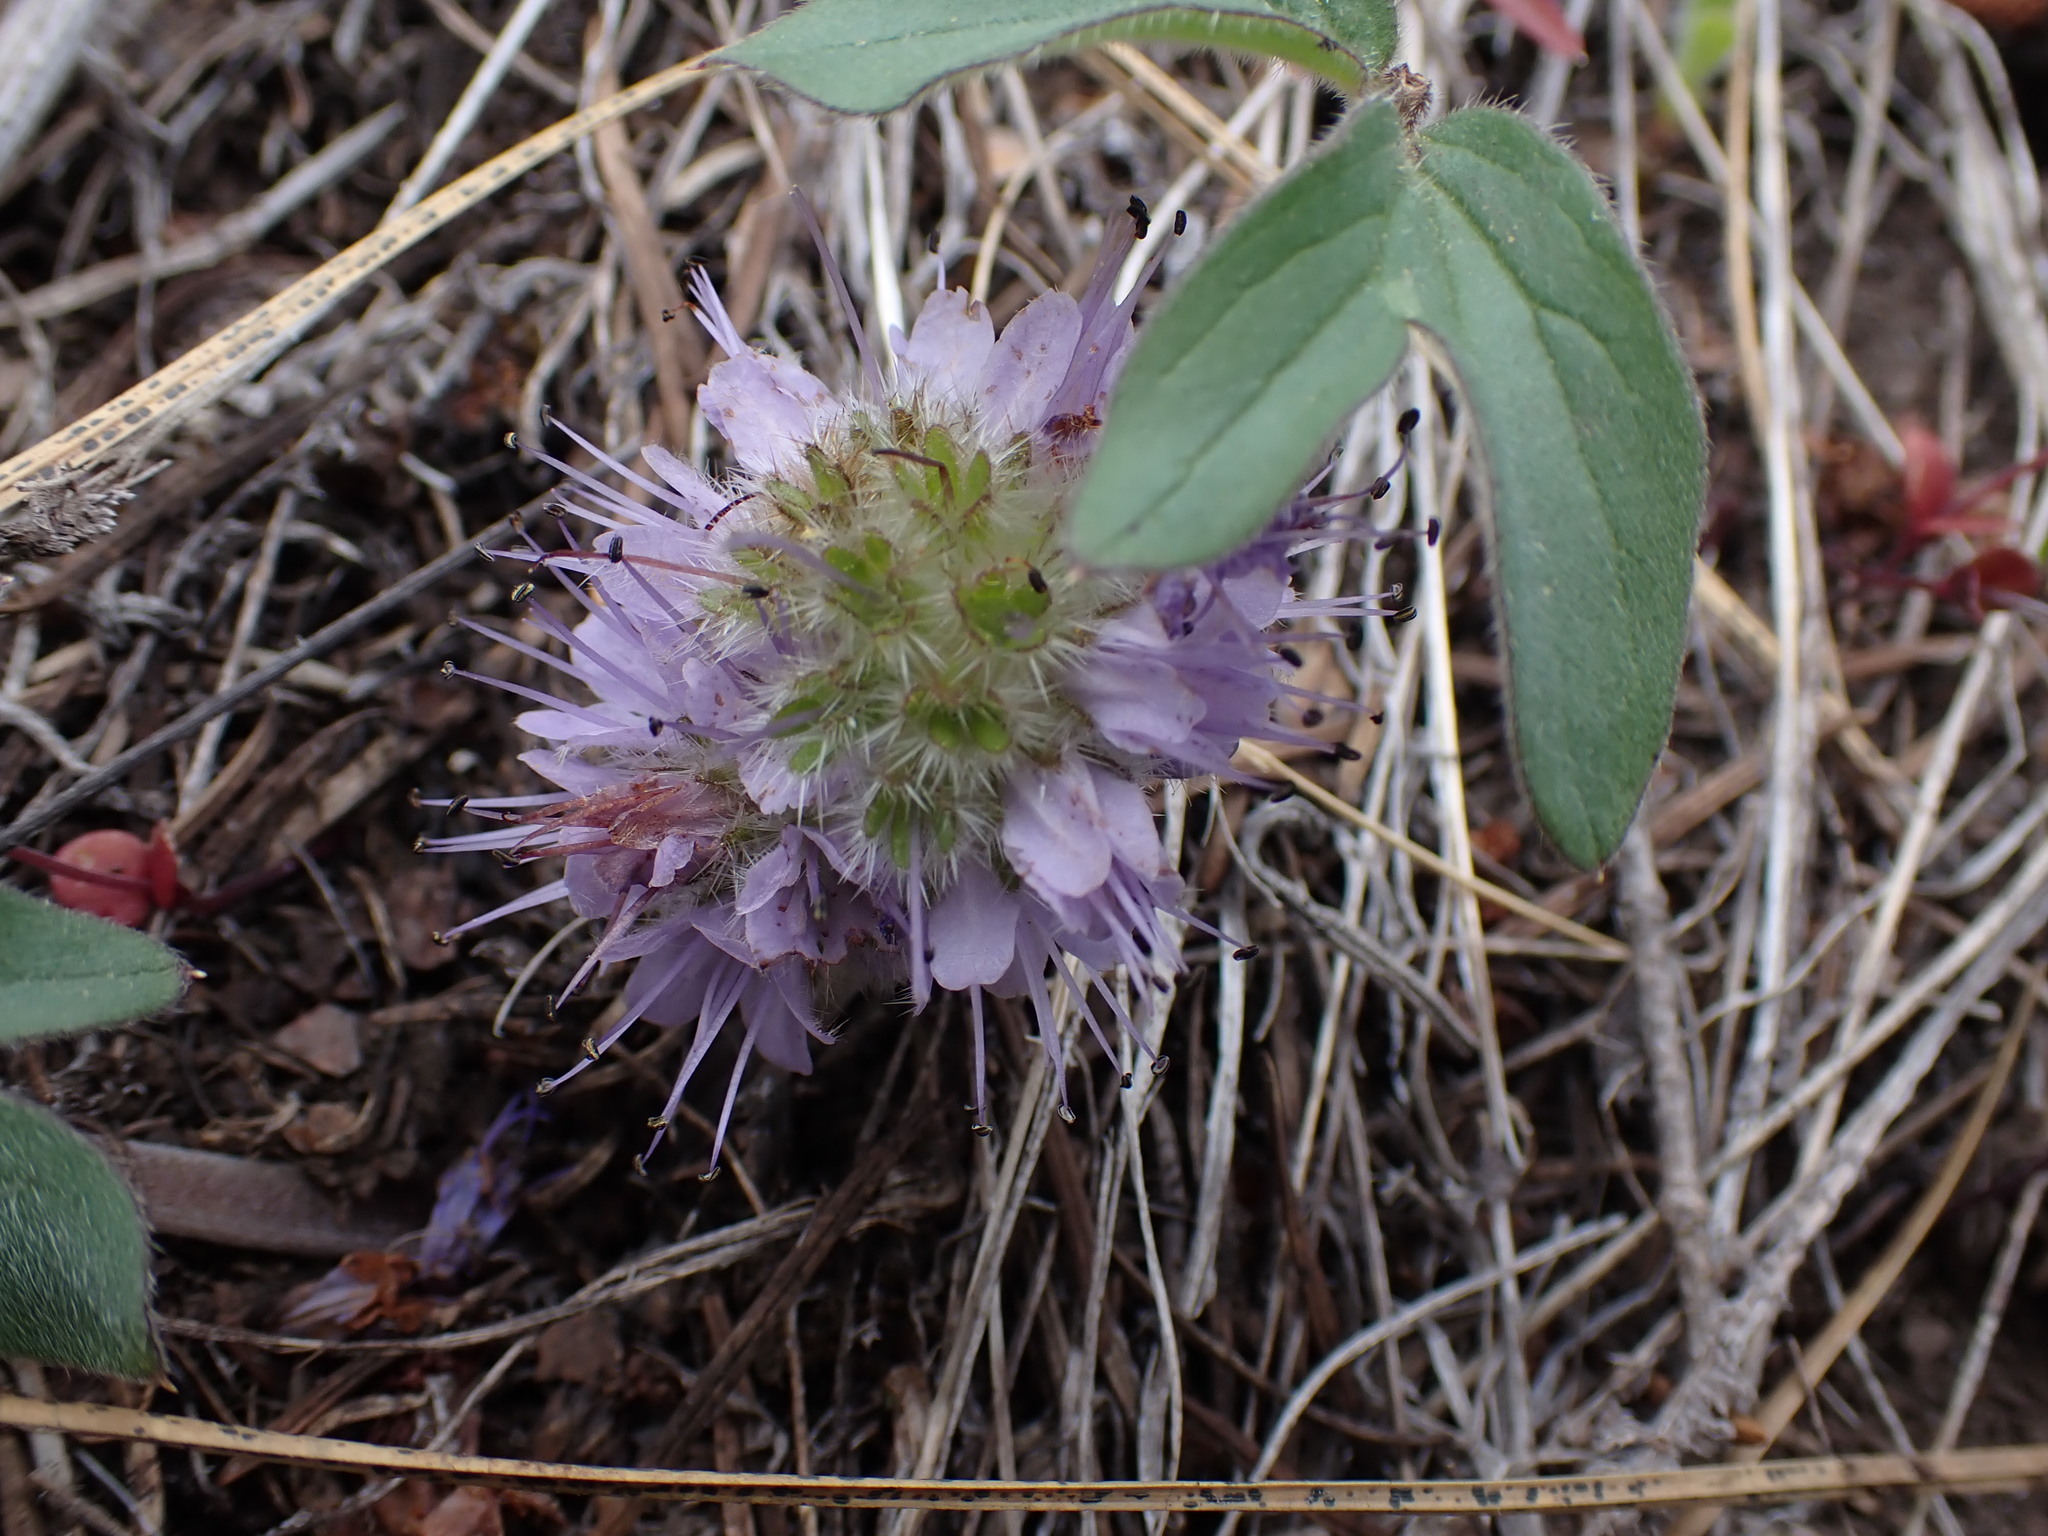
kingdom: Plantae
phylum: Tracheophyta
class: Magnoliopsida
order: Boraginales
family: Hydrophyllaceae
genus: Hydrophyllum
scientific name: Hydrophyllum capitatum
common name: Woollen-breeches
